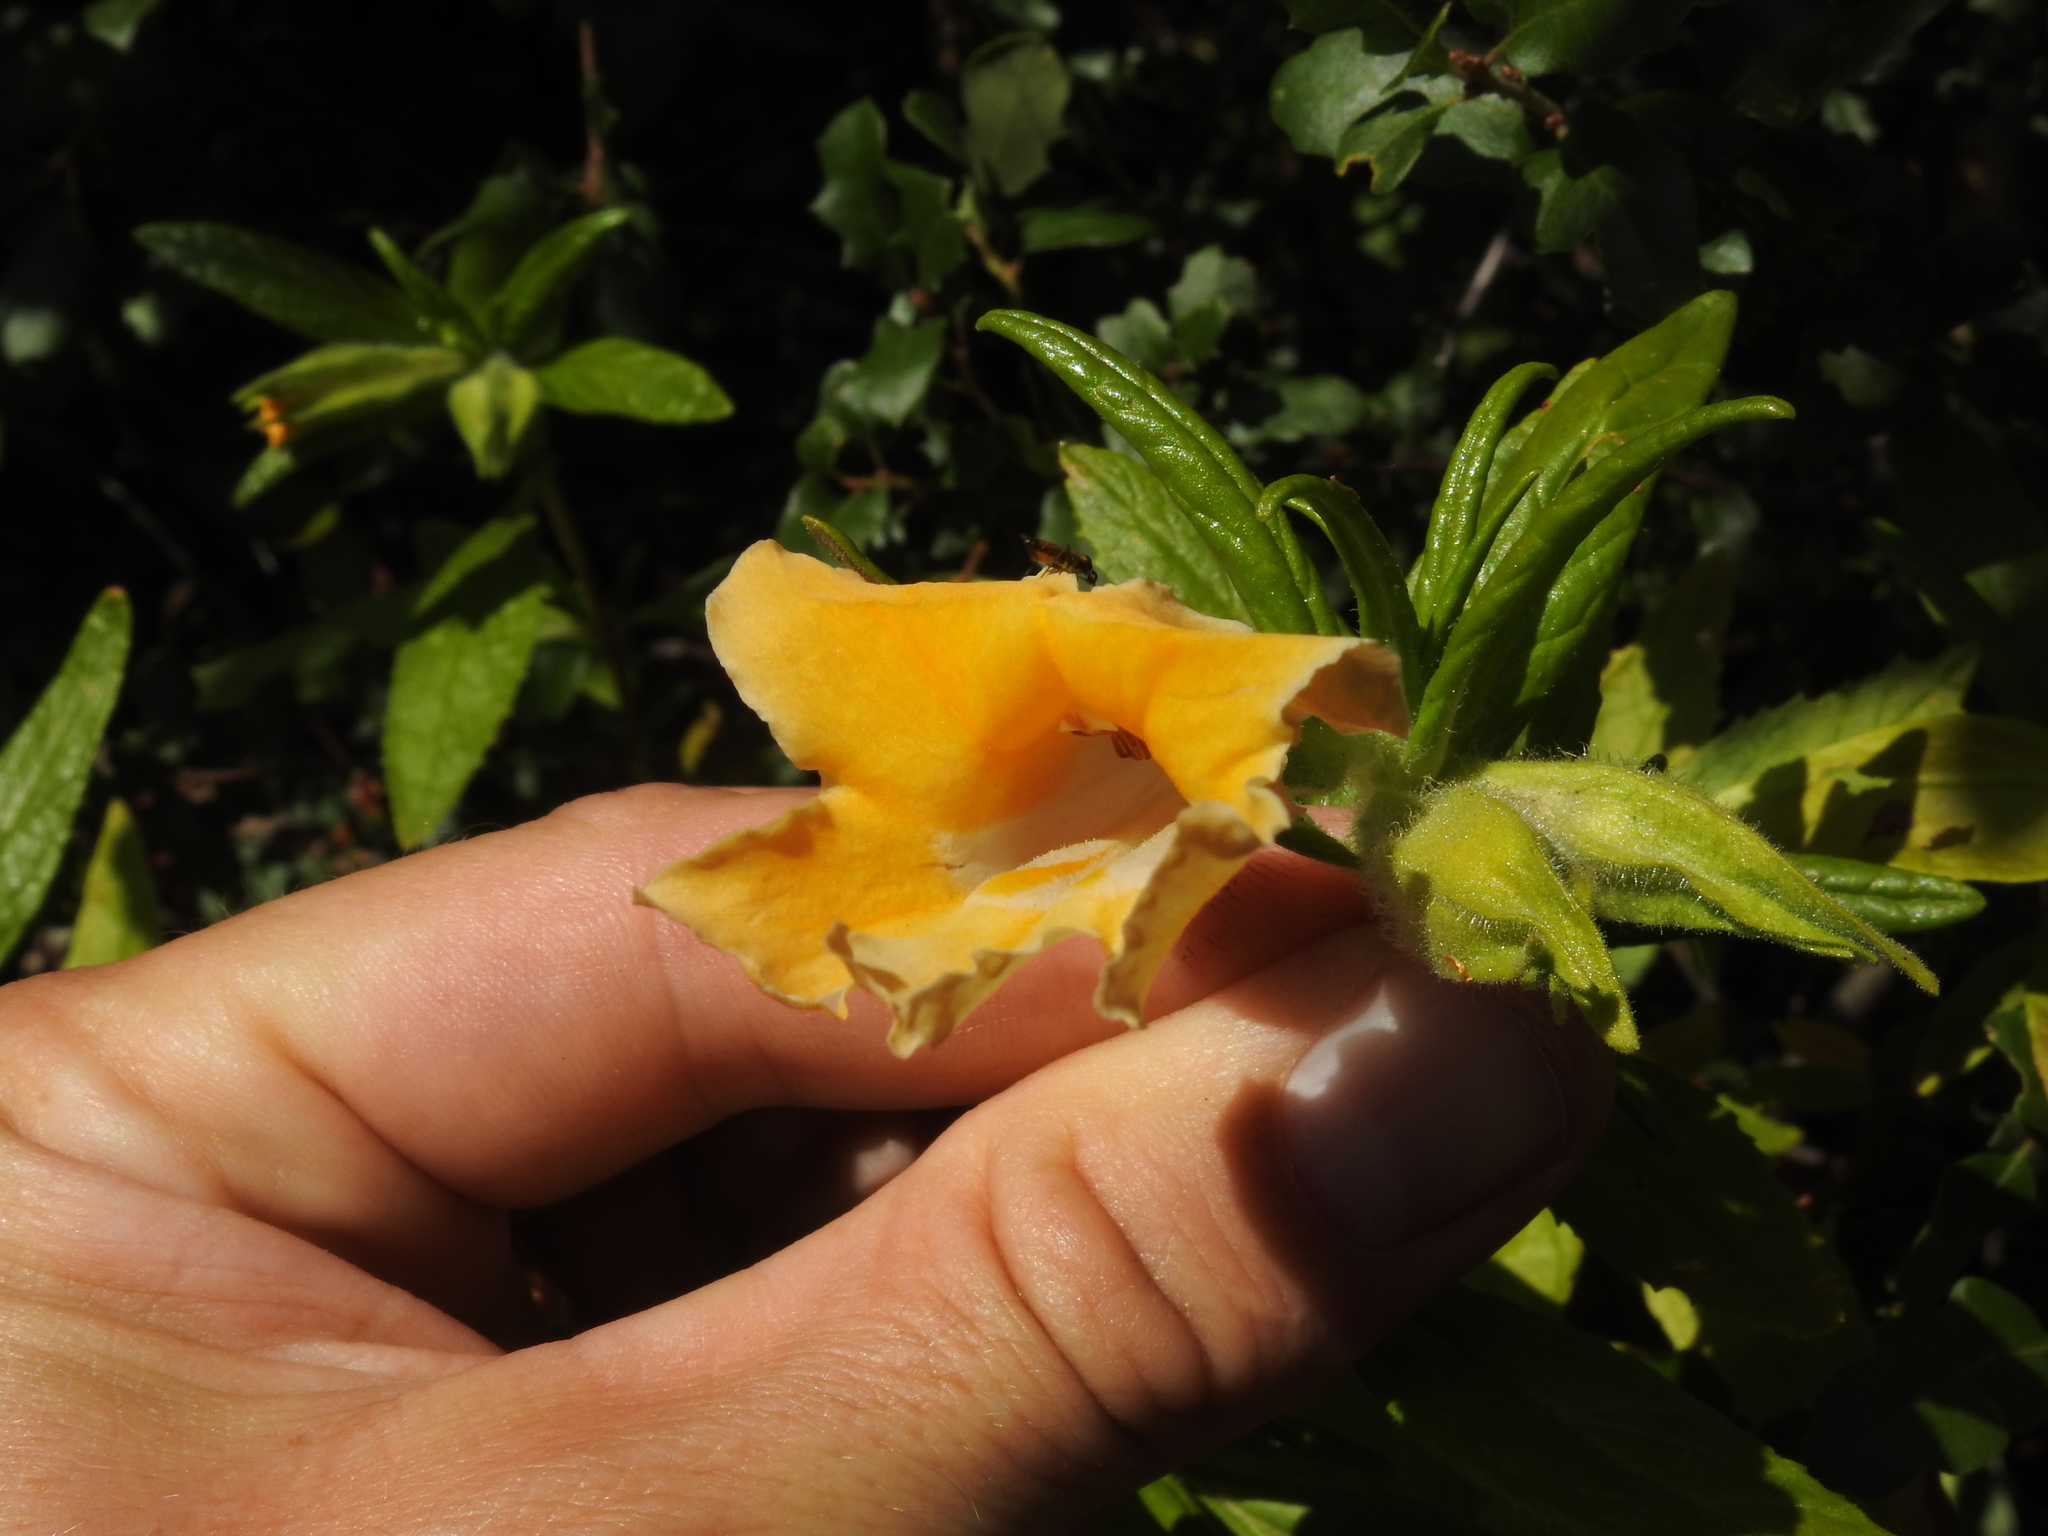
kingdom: Plantae
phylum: Tracheophyta
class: Magnoliopsida
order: Lamiales
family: Phrymaceae
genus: Diplacus
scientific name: Diplacus longiflorus
